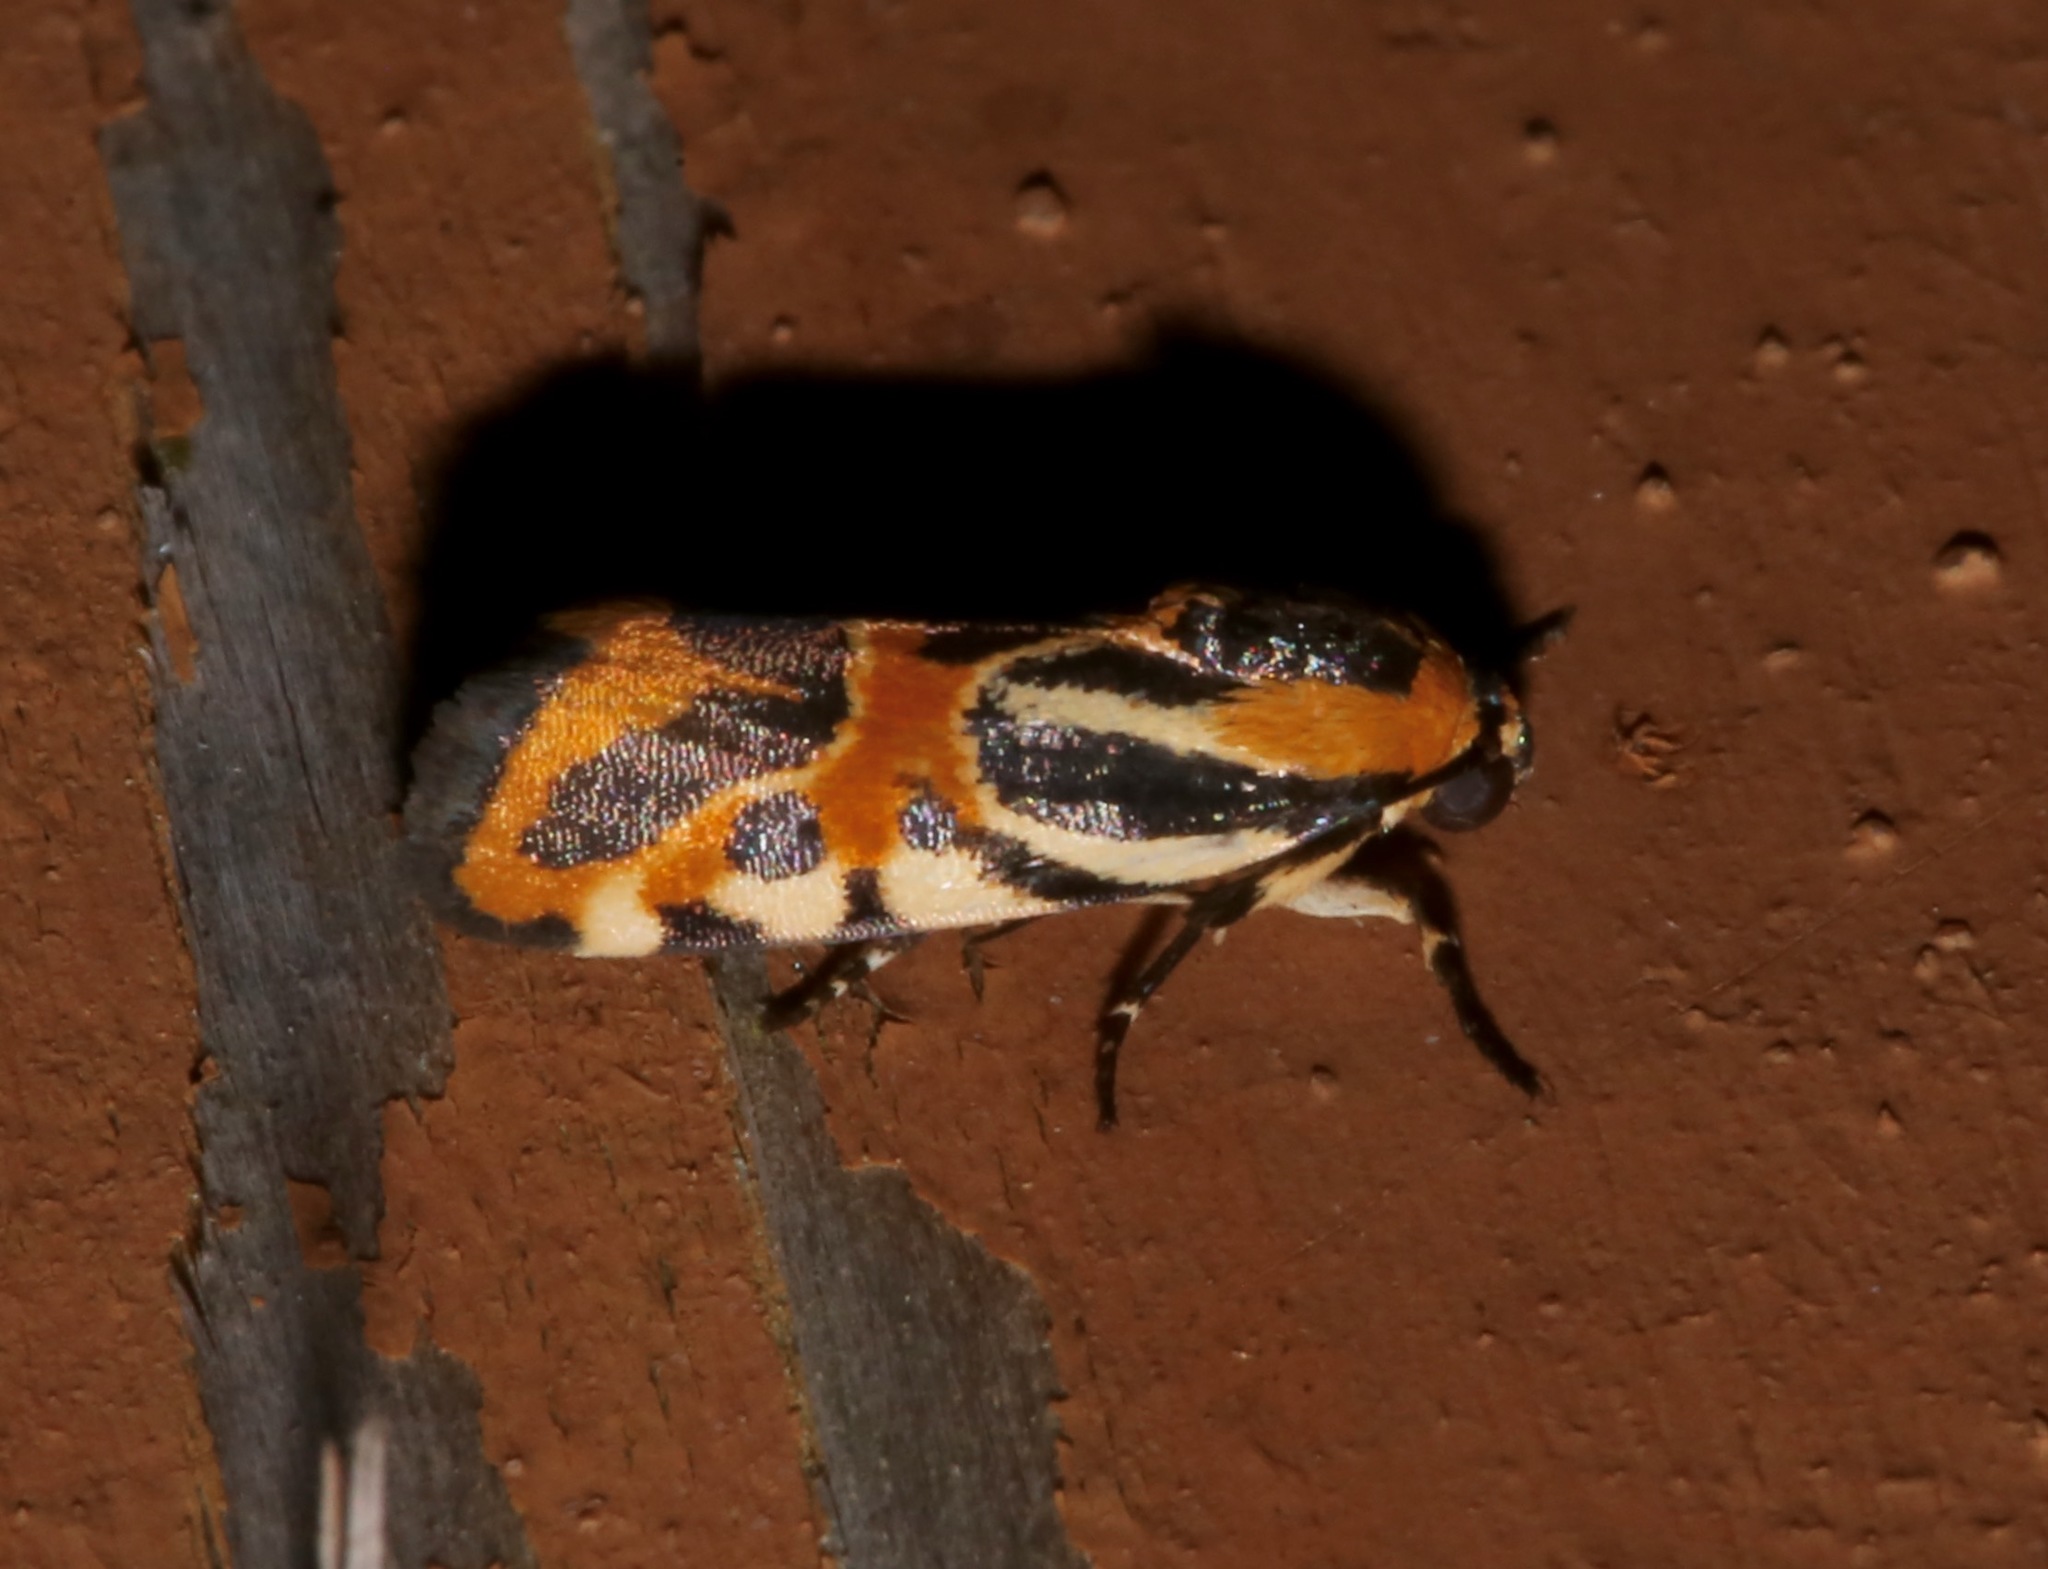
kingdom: Animalia
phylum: Arthropoda
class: Insecta
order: Lepidoptera
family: Noctuidae
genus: Acontia
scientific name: Acontia onagrus
